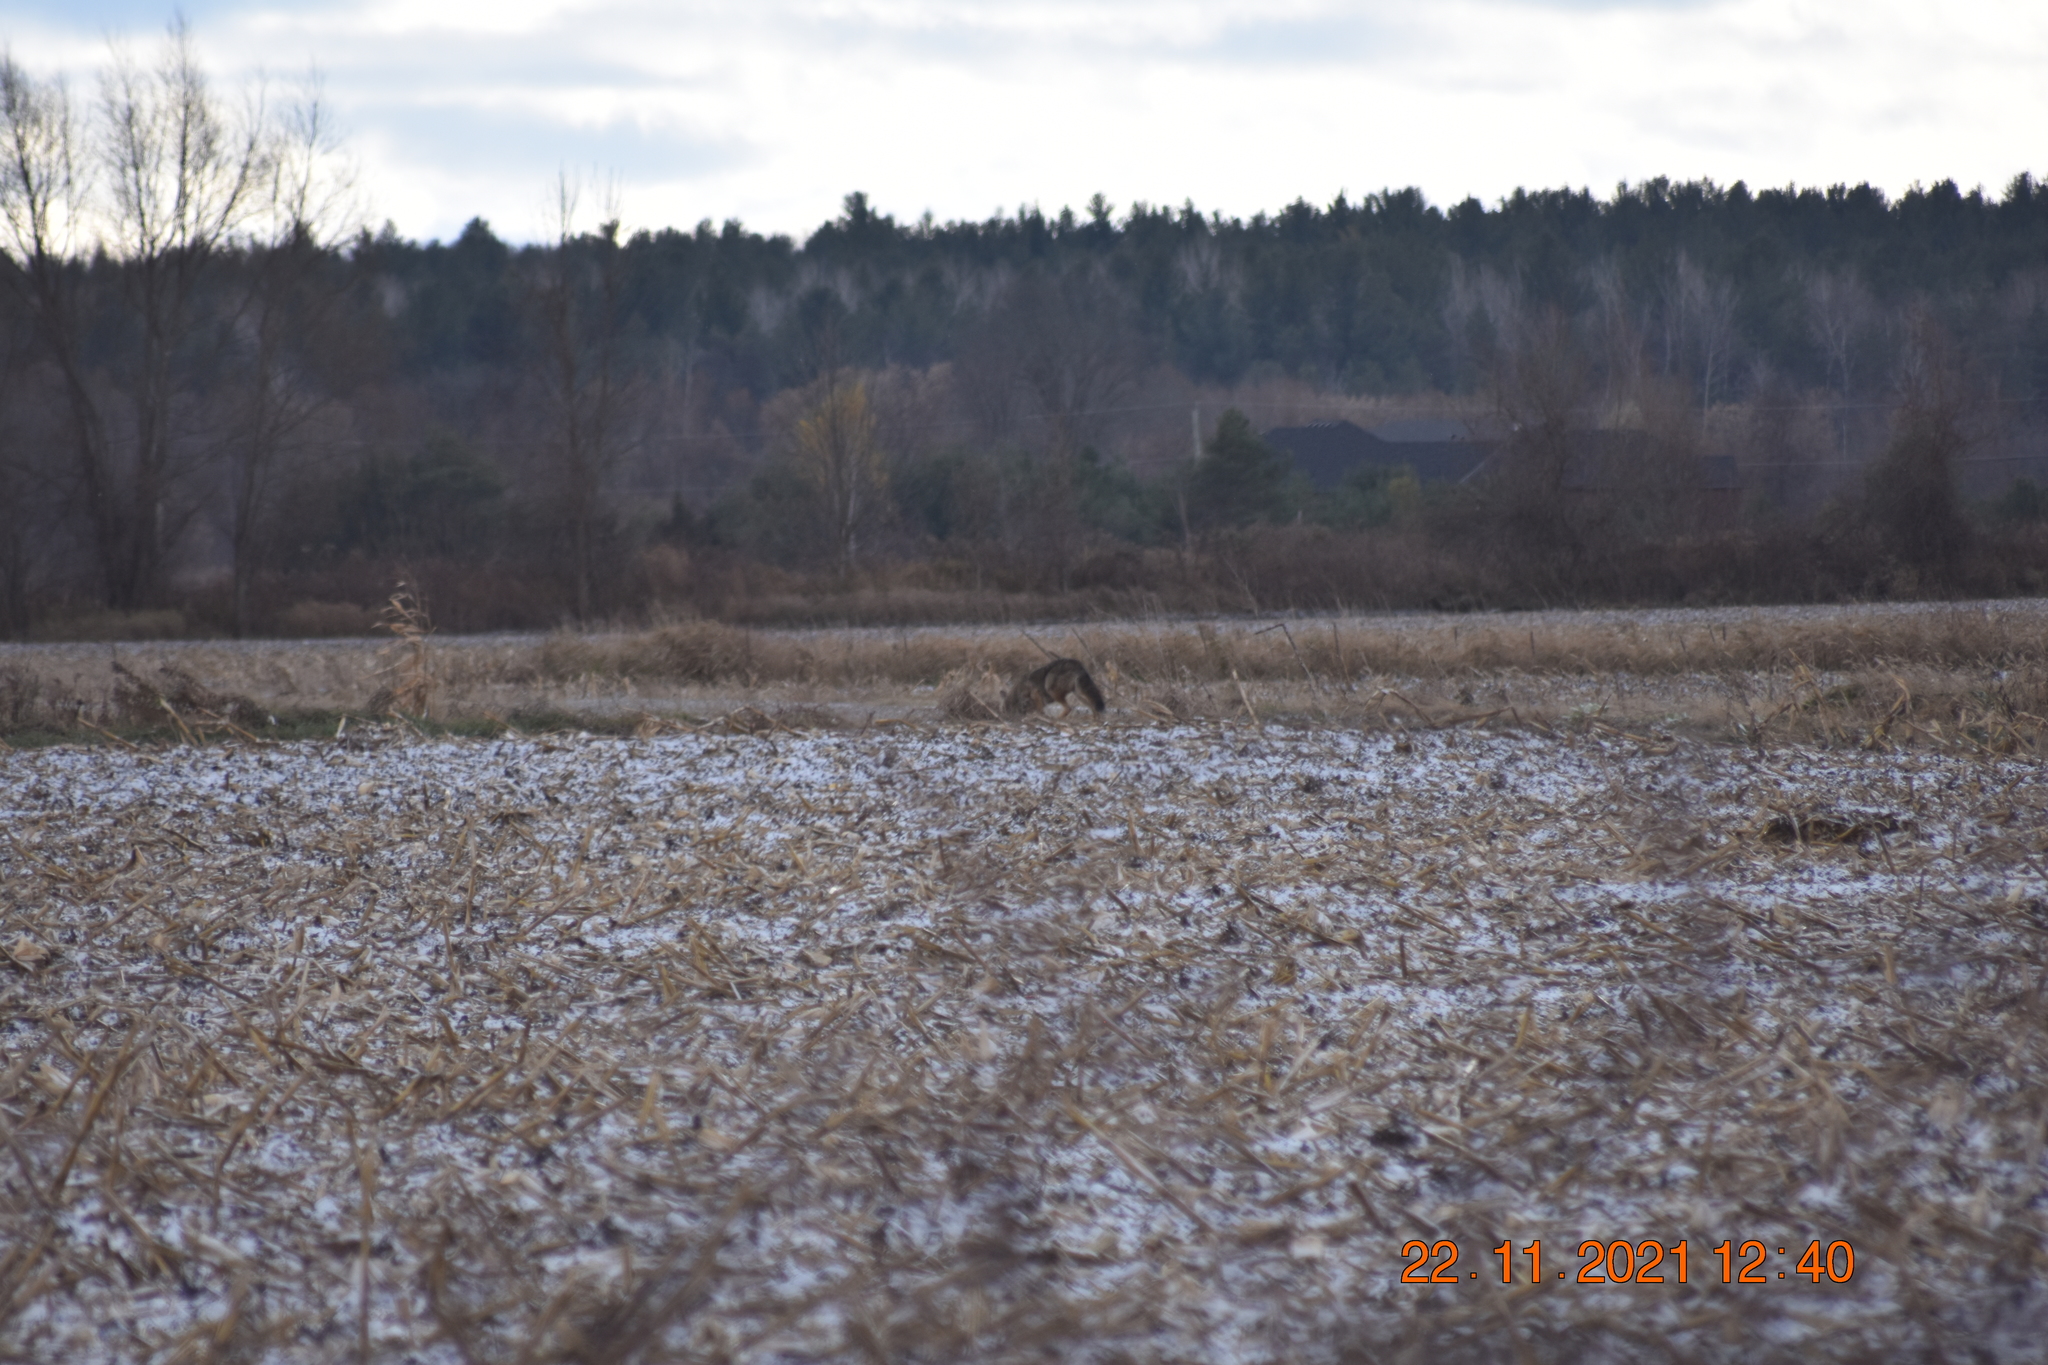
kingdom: Animalia
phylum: Chordata
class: Mammalia
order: Carnivora
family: Canidae
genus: Canis
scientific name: Canis latrans
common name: Coyote
